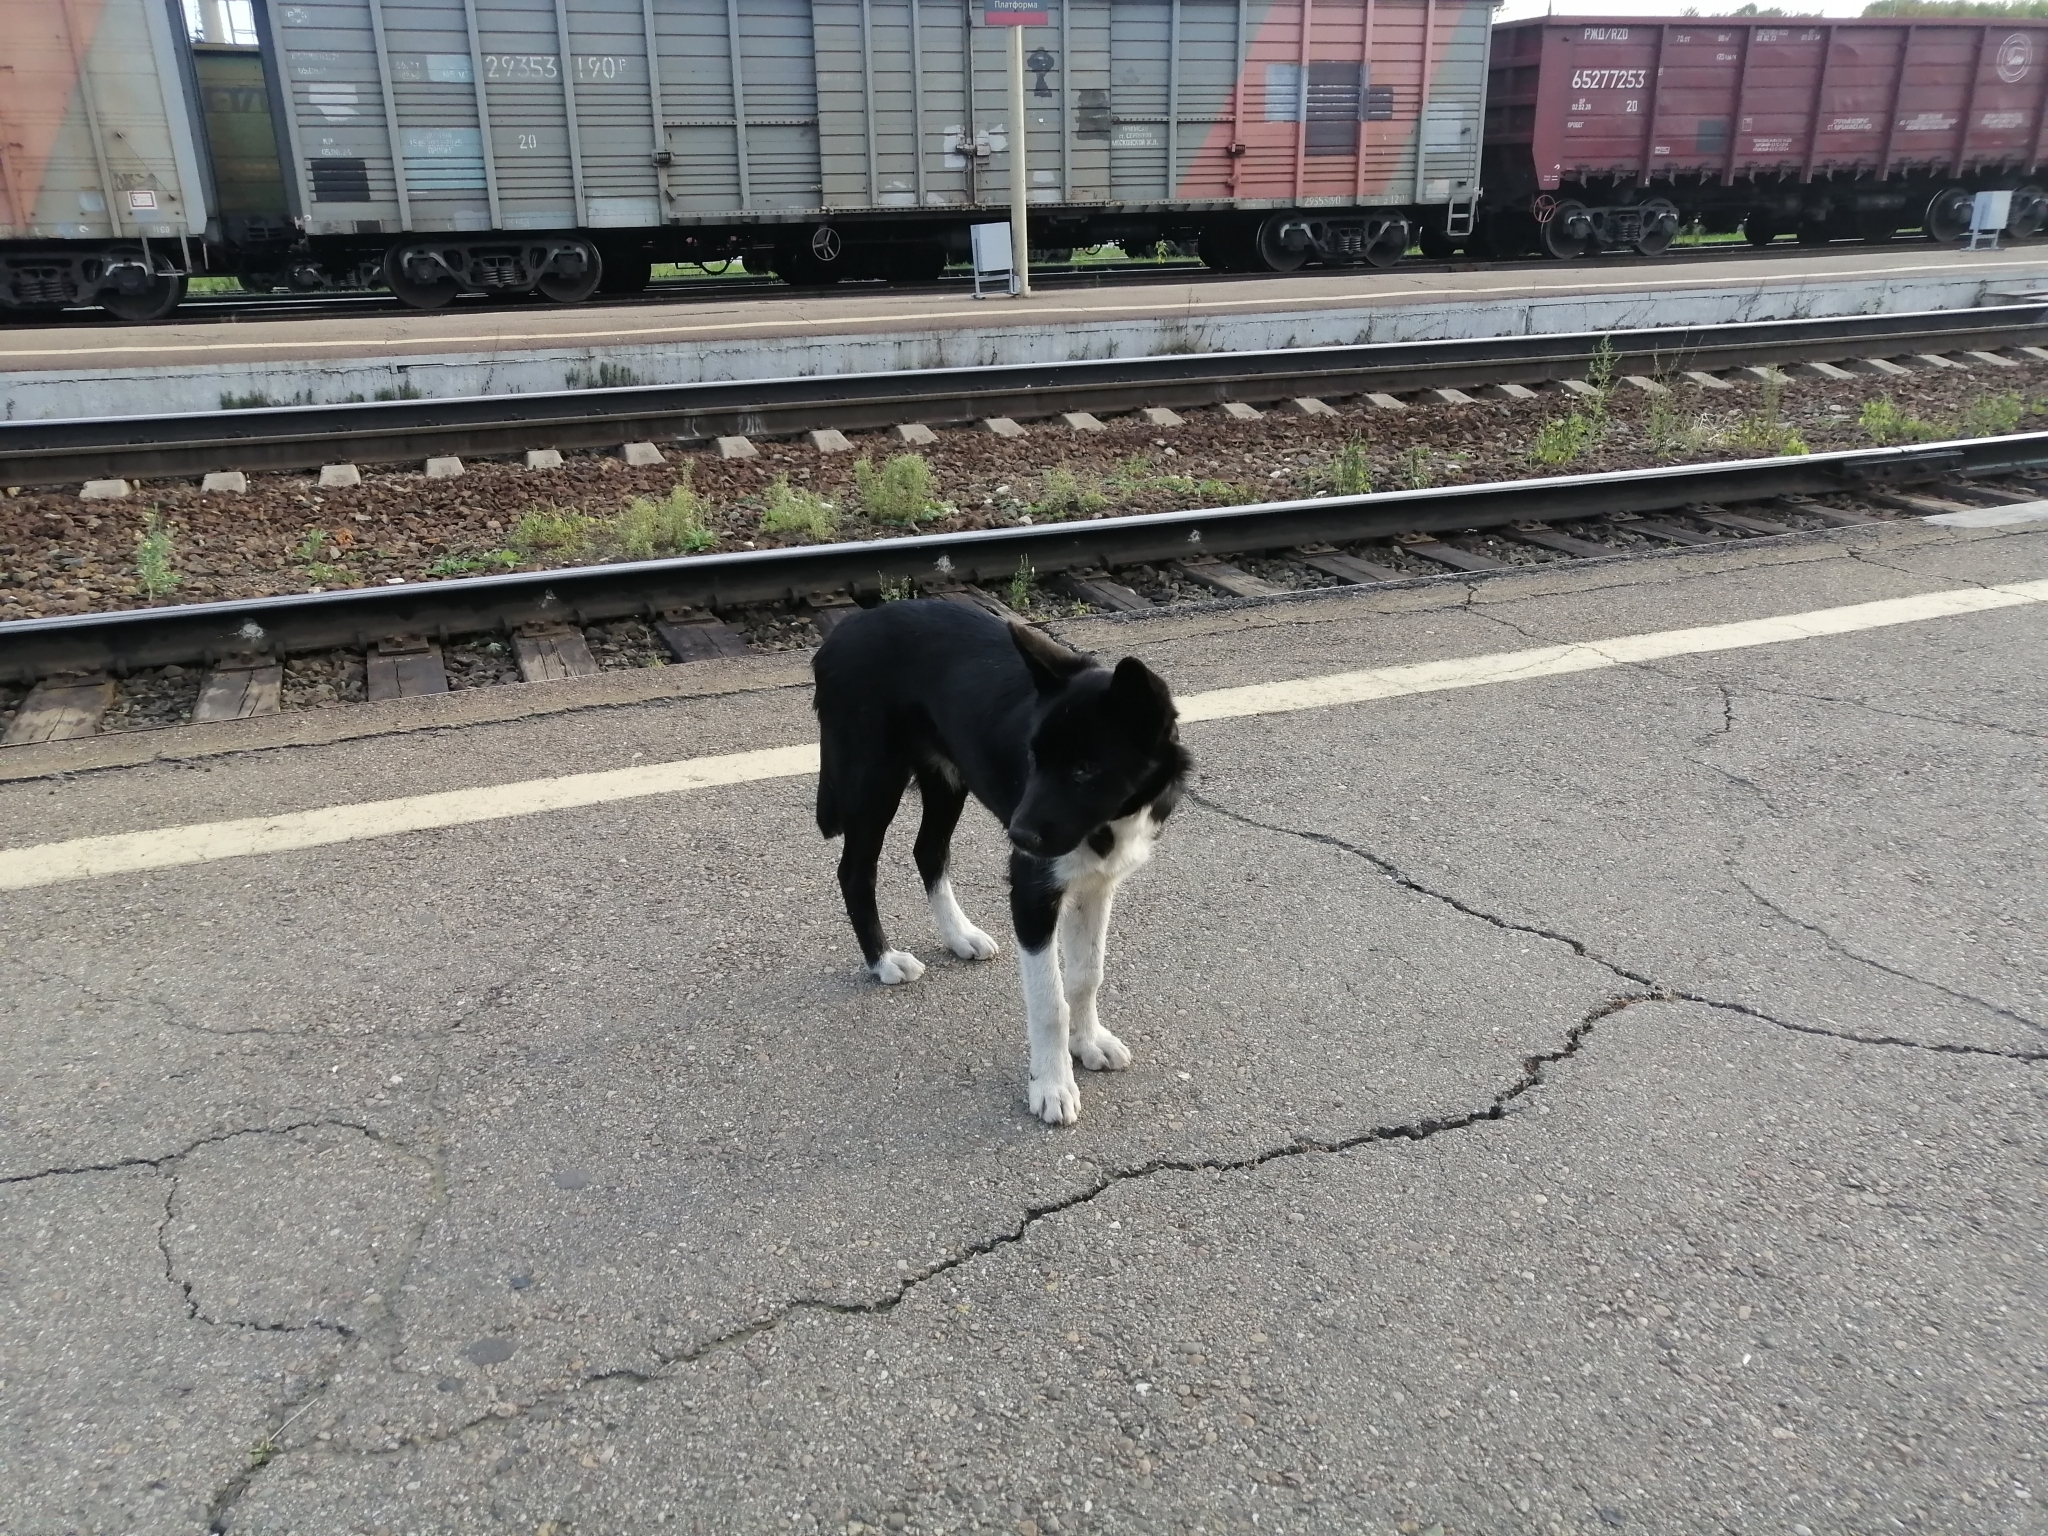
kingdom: Animalia
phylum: Chordata
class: Mammalia
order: Carnivora
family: Canidae
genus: Canis
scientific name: Canis lupus
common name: Gray wolf
